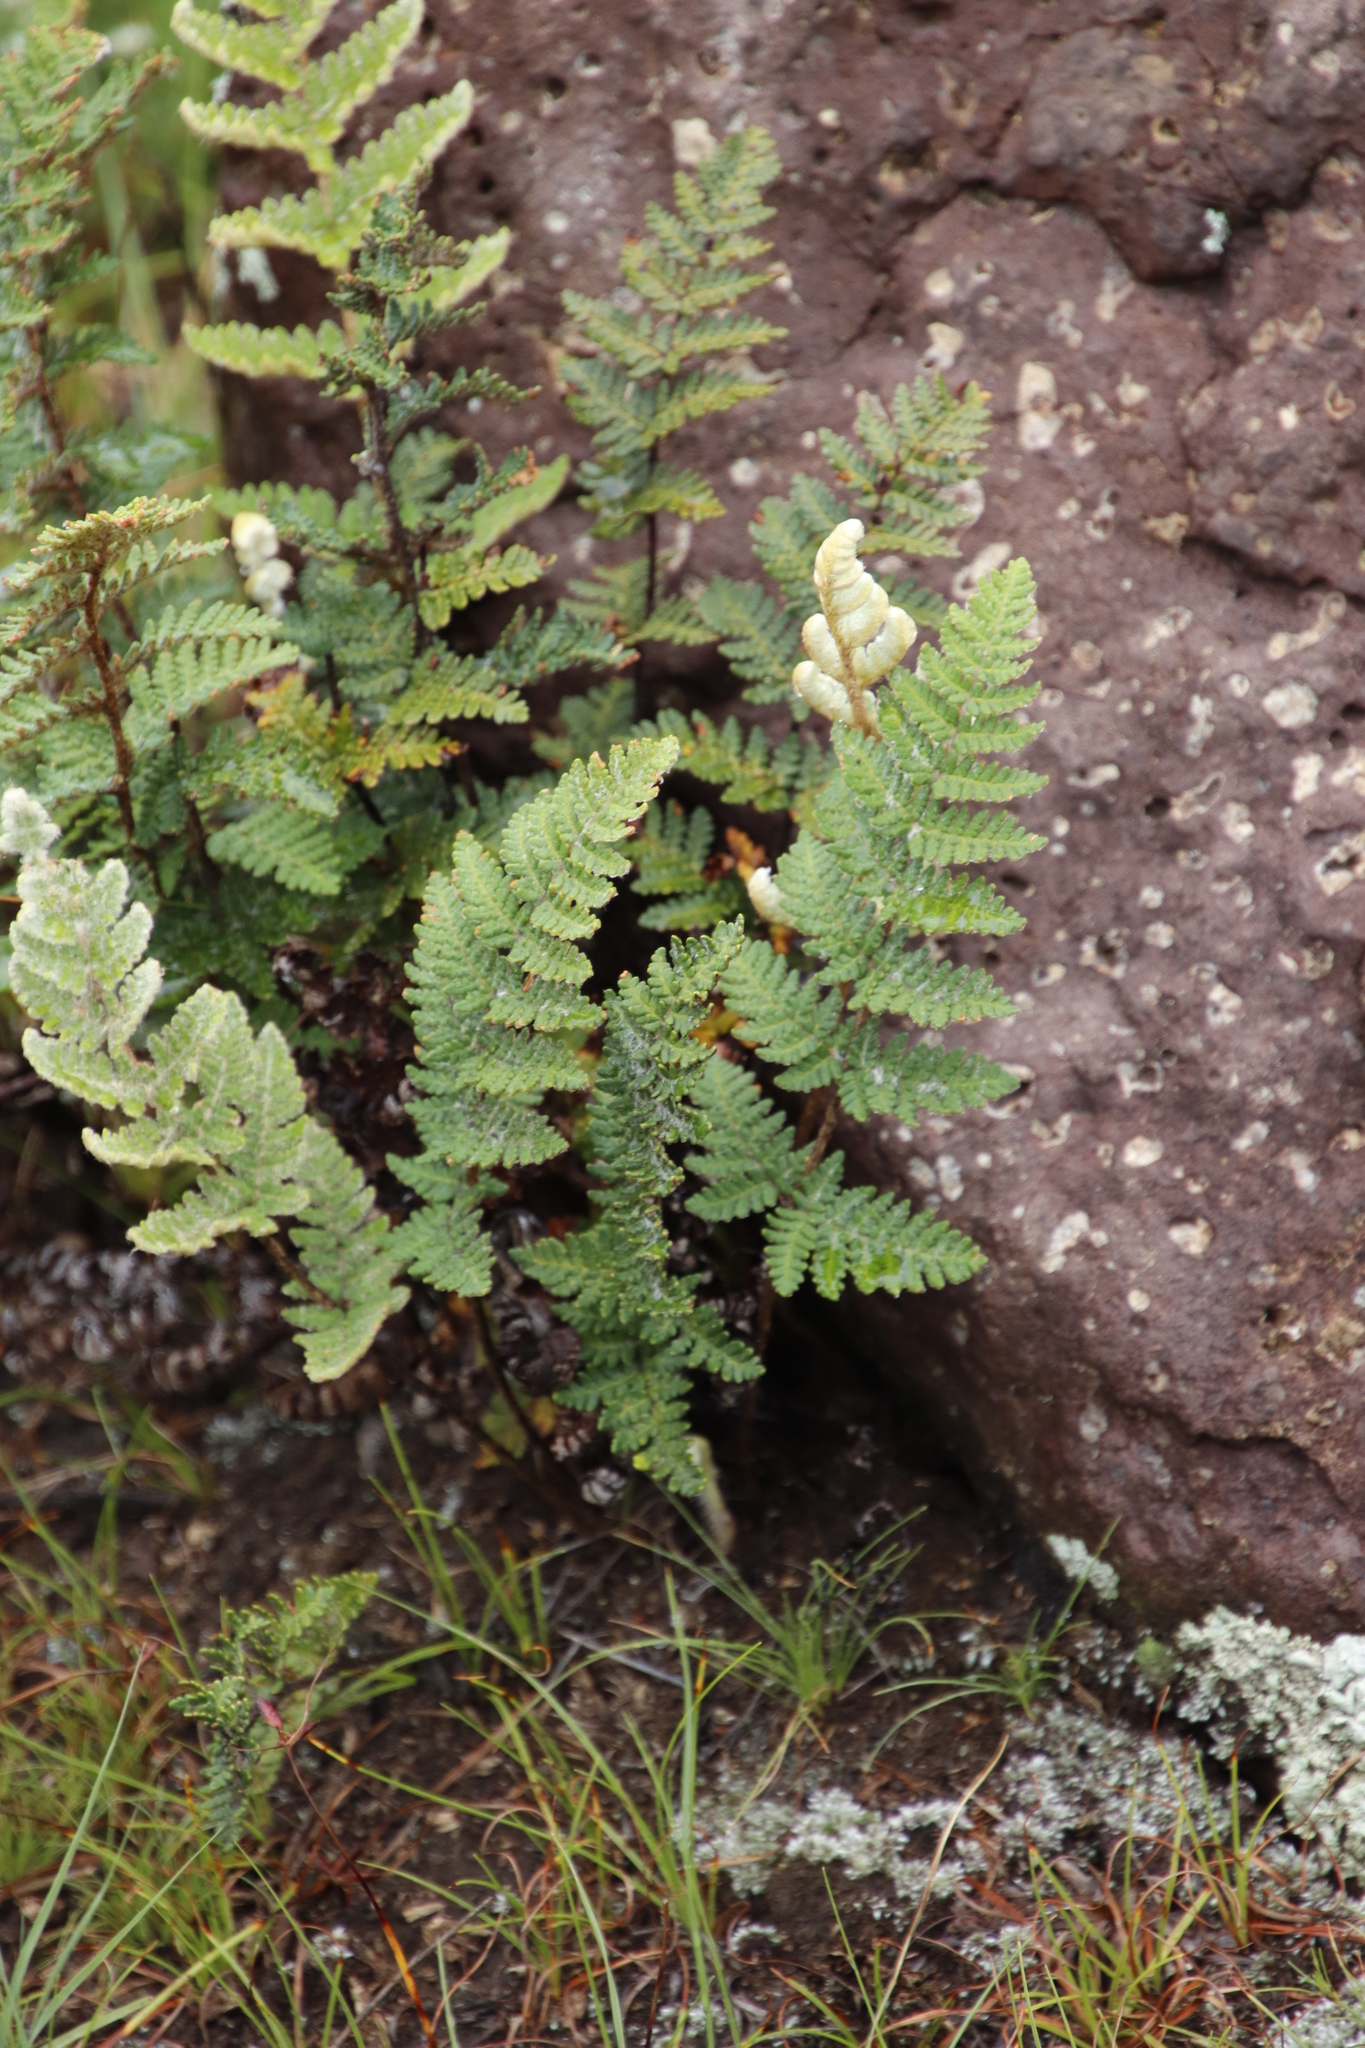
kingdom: Plantae
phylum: Tracheophyta
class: Polypodiopsida
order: Polypodiales
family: Pteridaceae
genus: Cheilanthes
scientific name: Cheilanthes eckloniana
